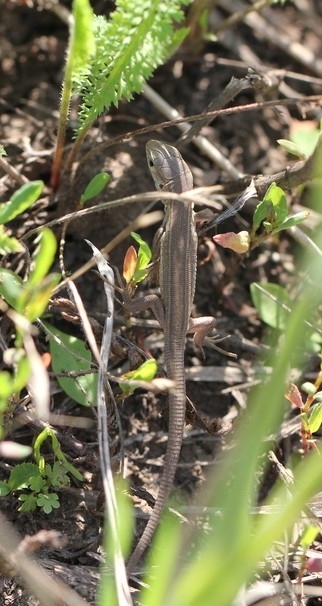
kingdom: Animalia
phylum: Chordata
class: Squamata
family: Lacertidae
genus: Lacerta
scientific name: Lacerta agilis
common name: Sand lizard
